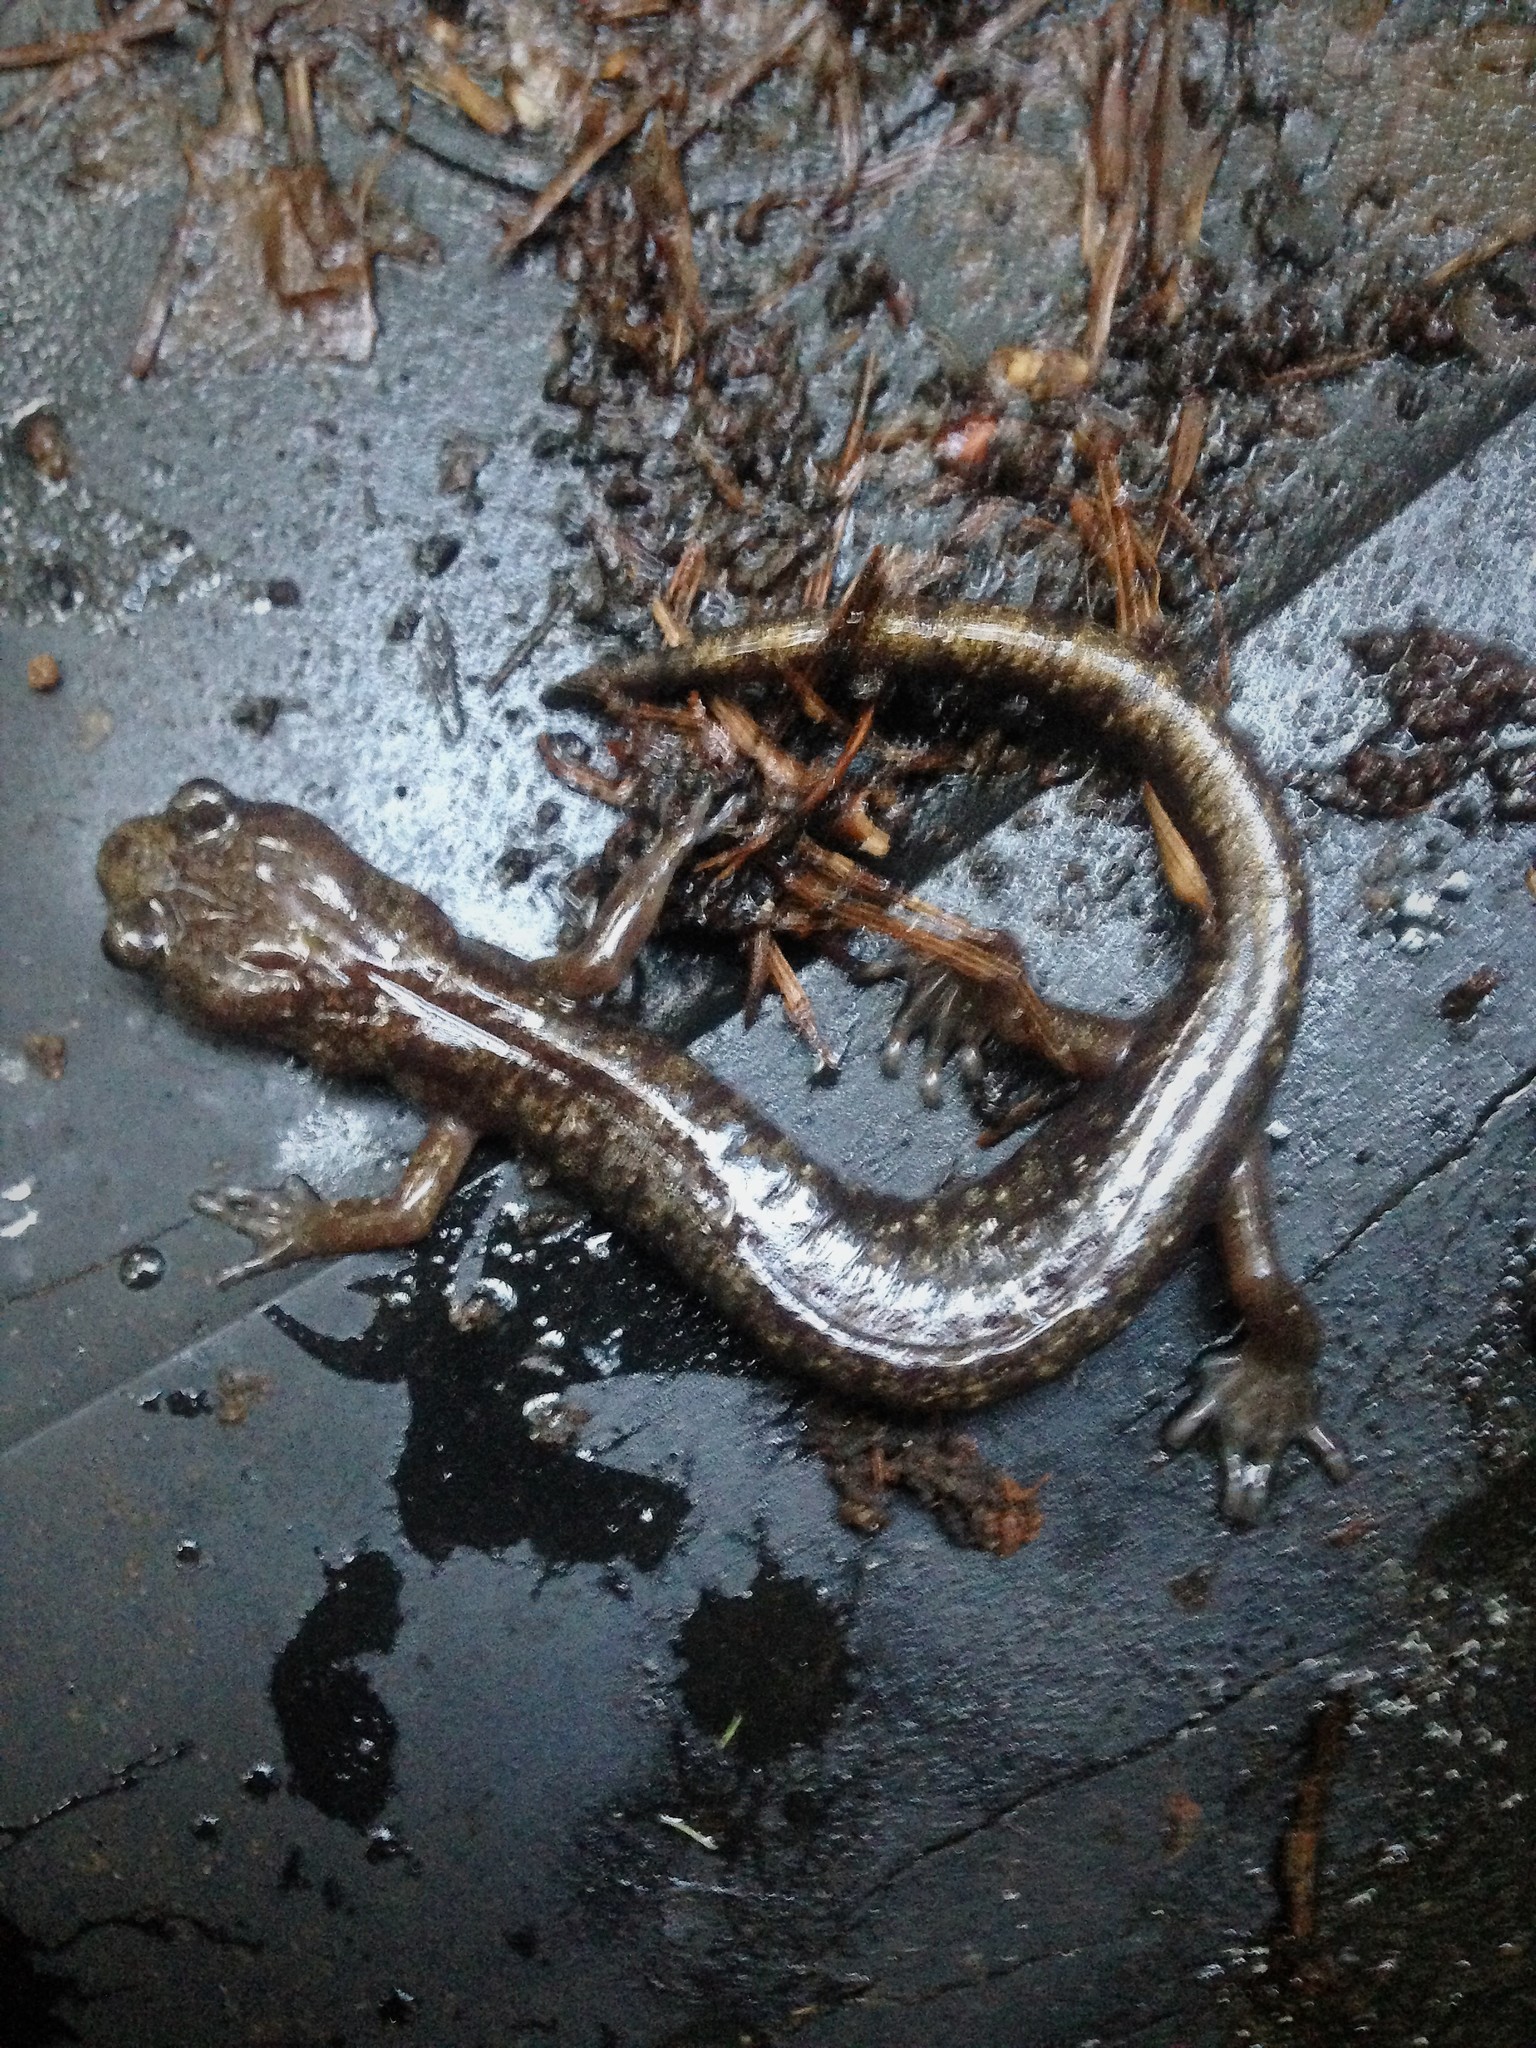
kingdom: Animalia
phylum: Chordata
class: Amphibia
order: Caudata
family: Plethodontidae
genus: Aneides
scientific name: Aneides ferreus
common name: Clouded salamander
